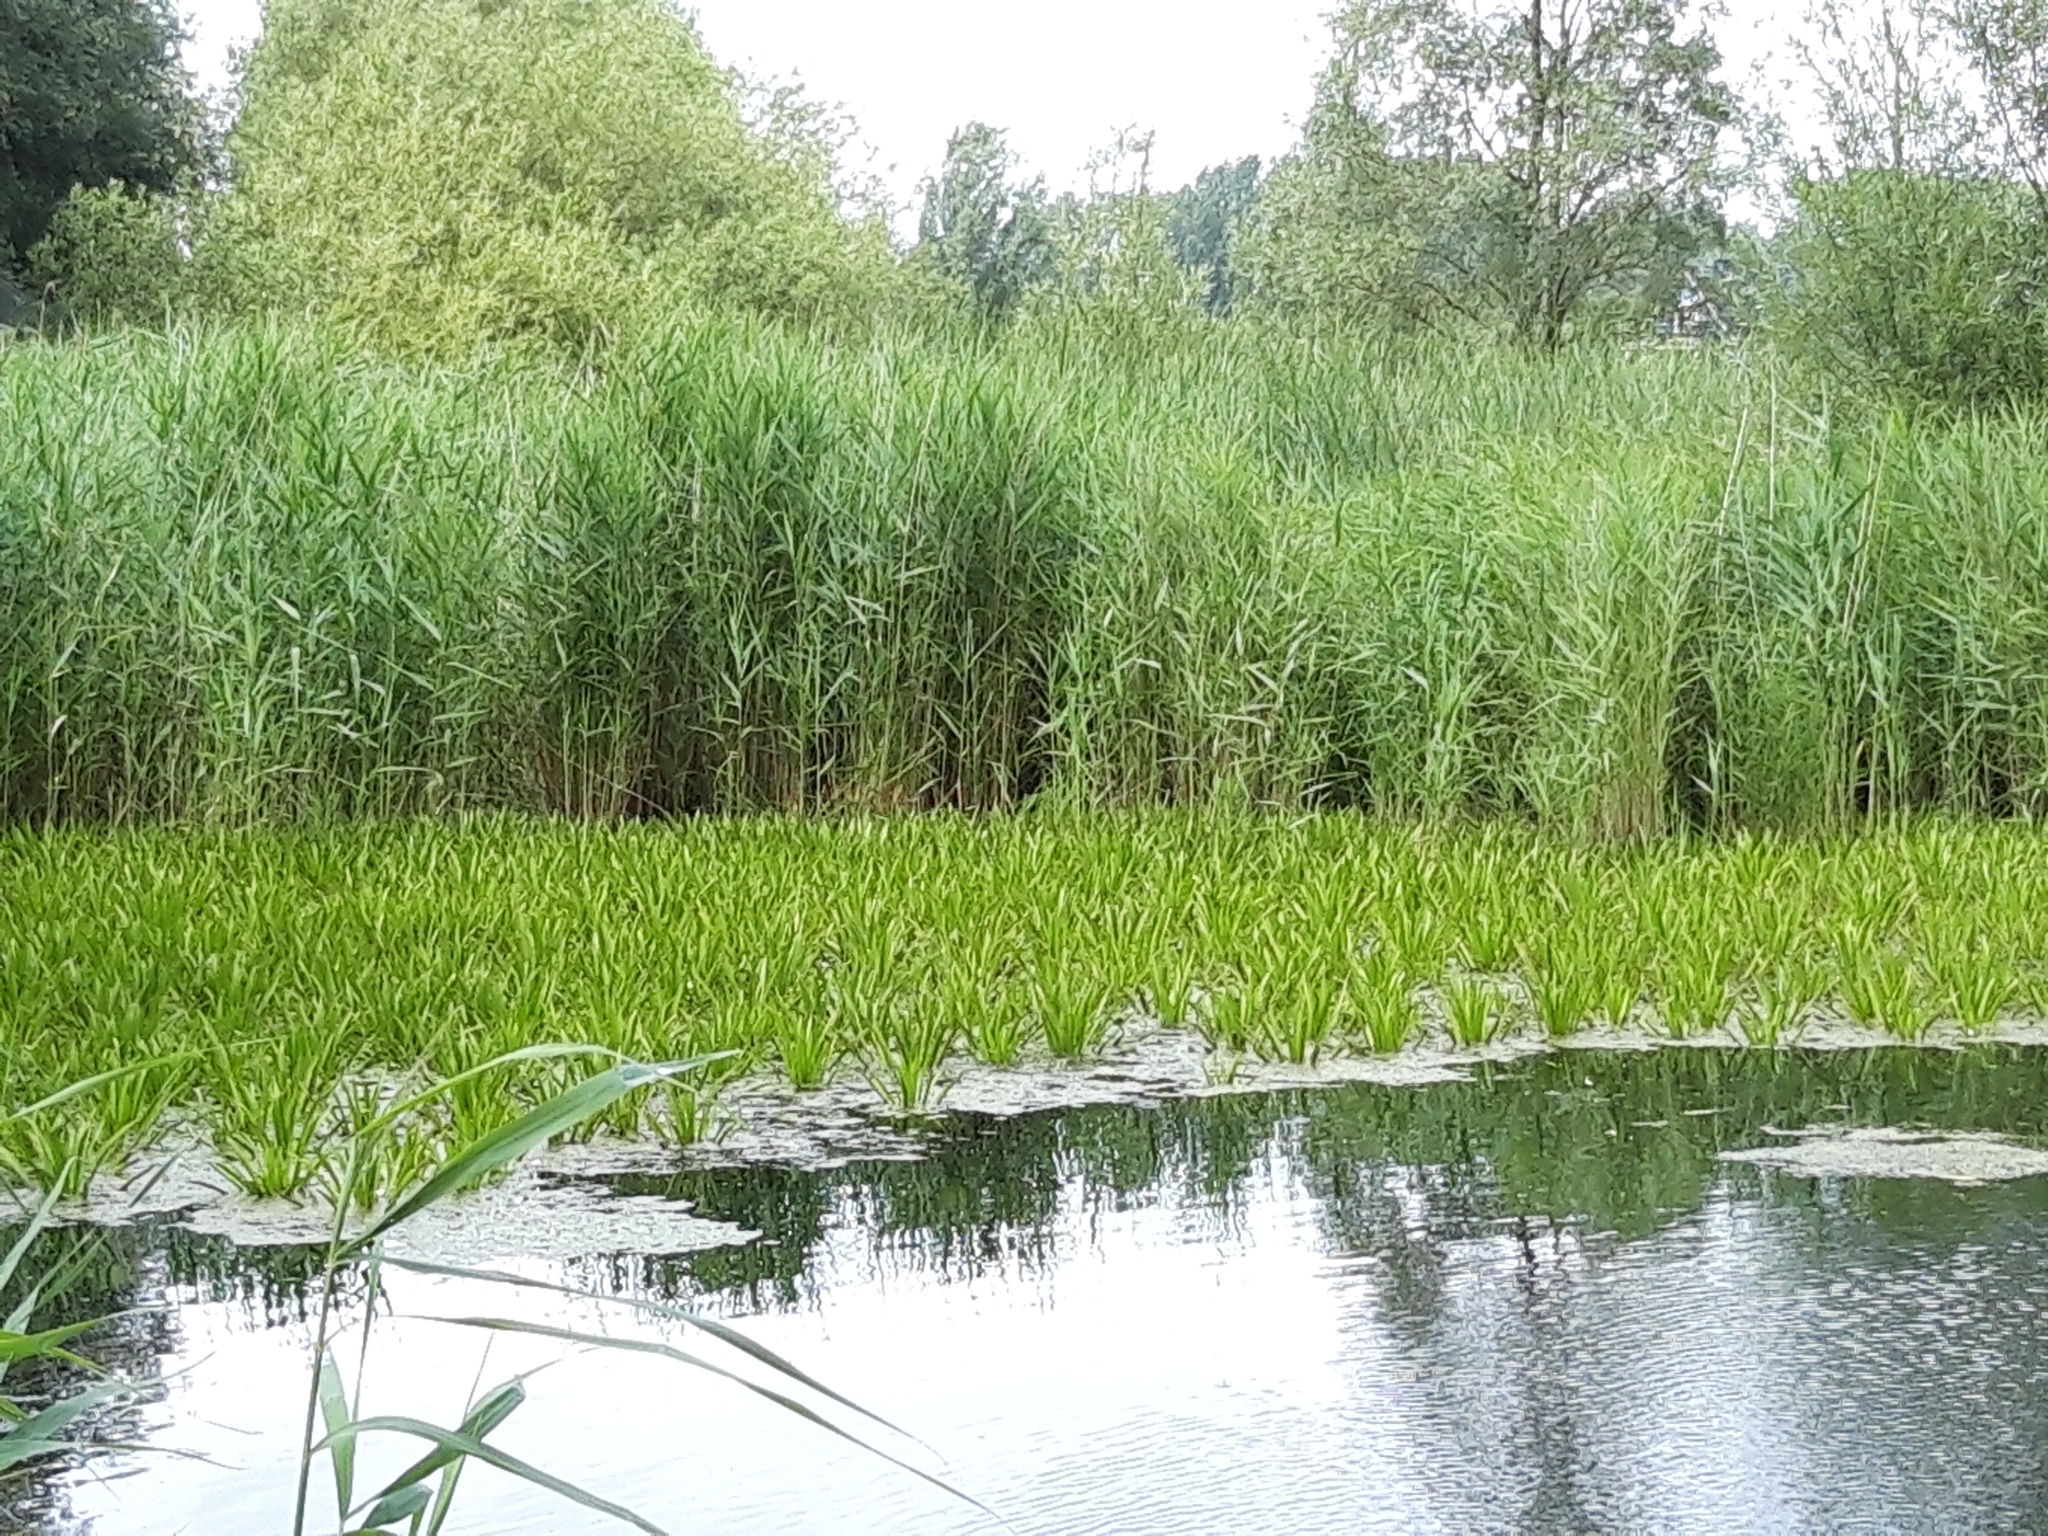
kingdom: Plantae
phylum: Tracheophyta
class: Liliopsida
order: Alismatales
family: Hydrocharitaceae
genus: Stratiotes
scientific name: Stratiotes aloides
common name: Water-soldier
